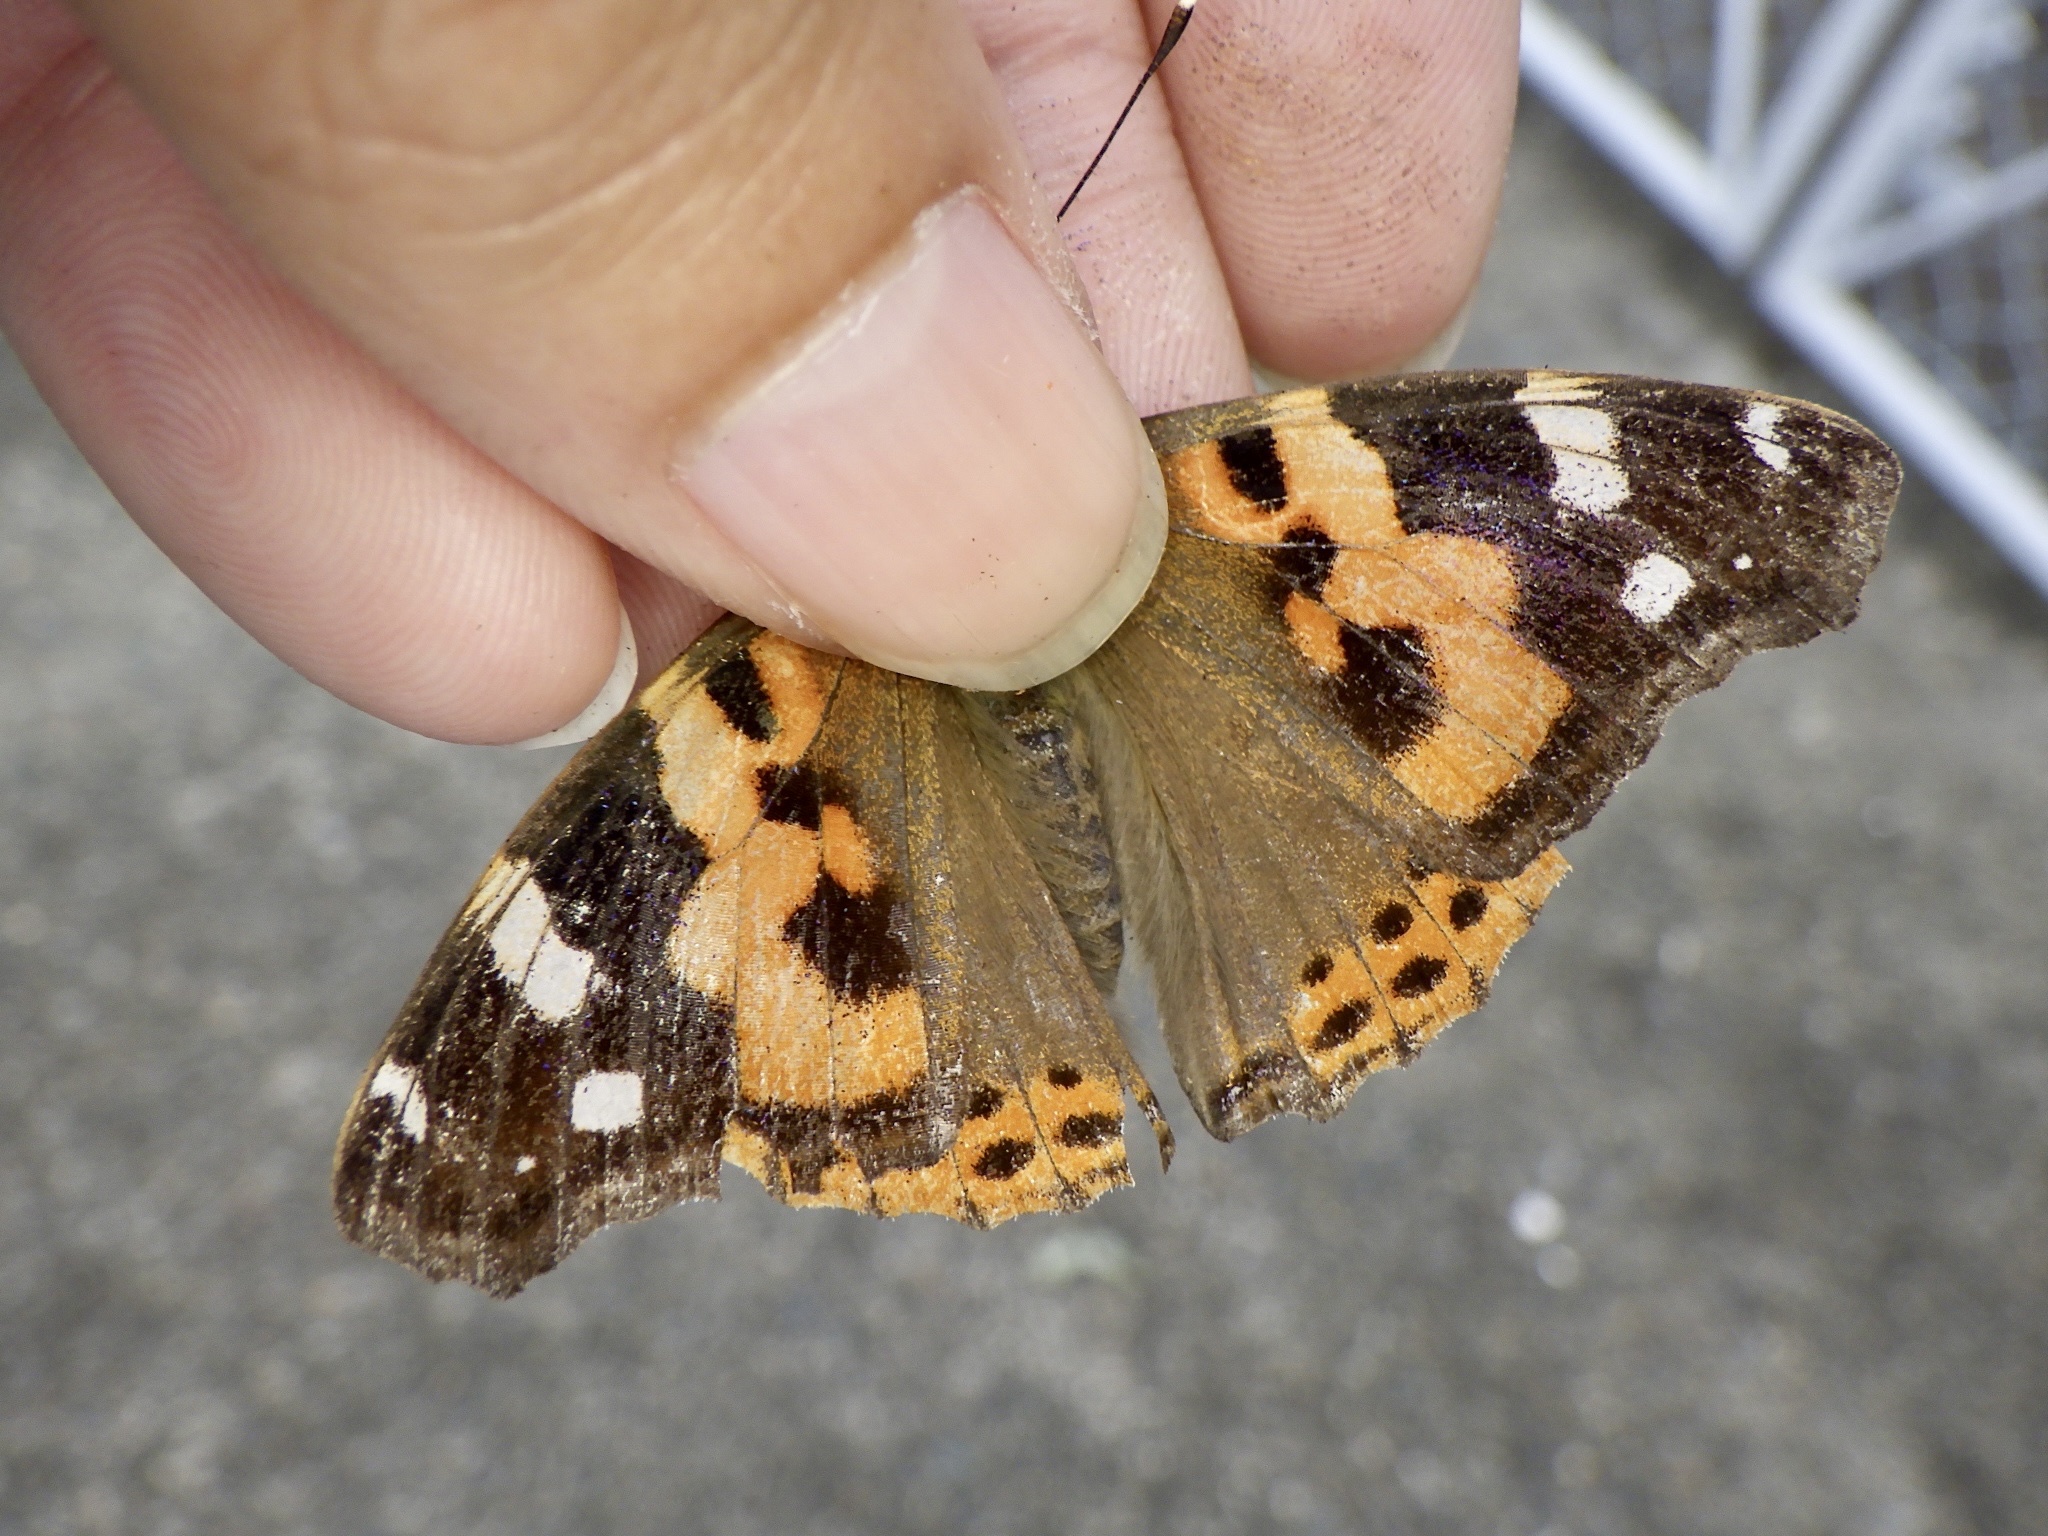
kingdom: Animalia
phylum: Arthropoda
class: Insecta
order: Lepidoptera
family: Nymphalidae
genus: Vanessa
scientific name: Vanessa indica
